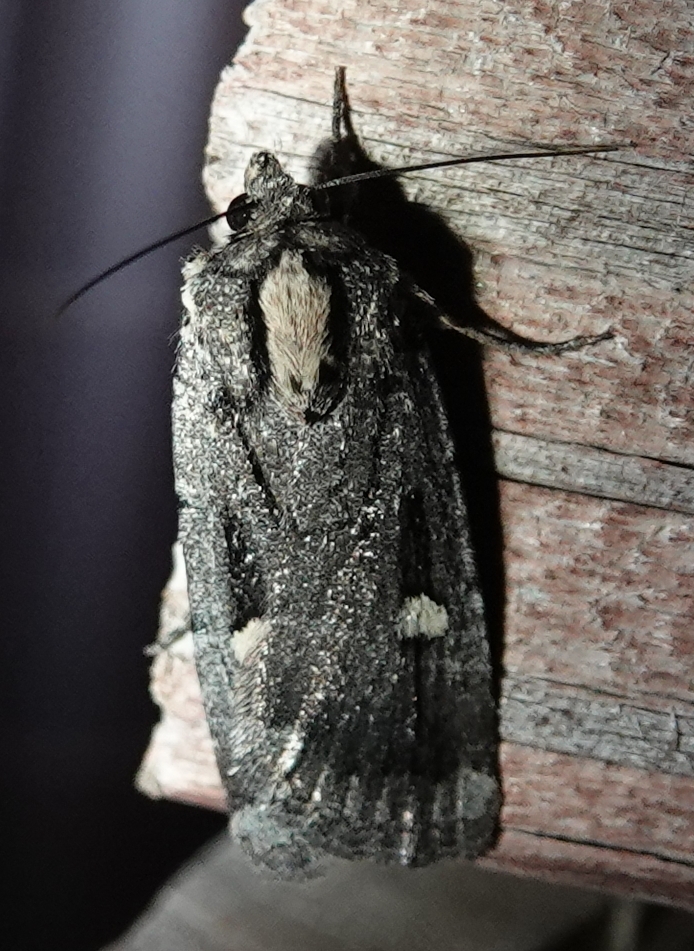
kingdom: Animalia
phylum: Arthropoda
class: Insecta
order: Lepidoptera
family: Noctuidae
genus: Abagrotis
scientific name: Abagrotis mirabilis
